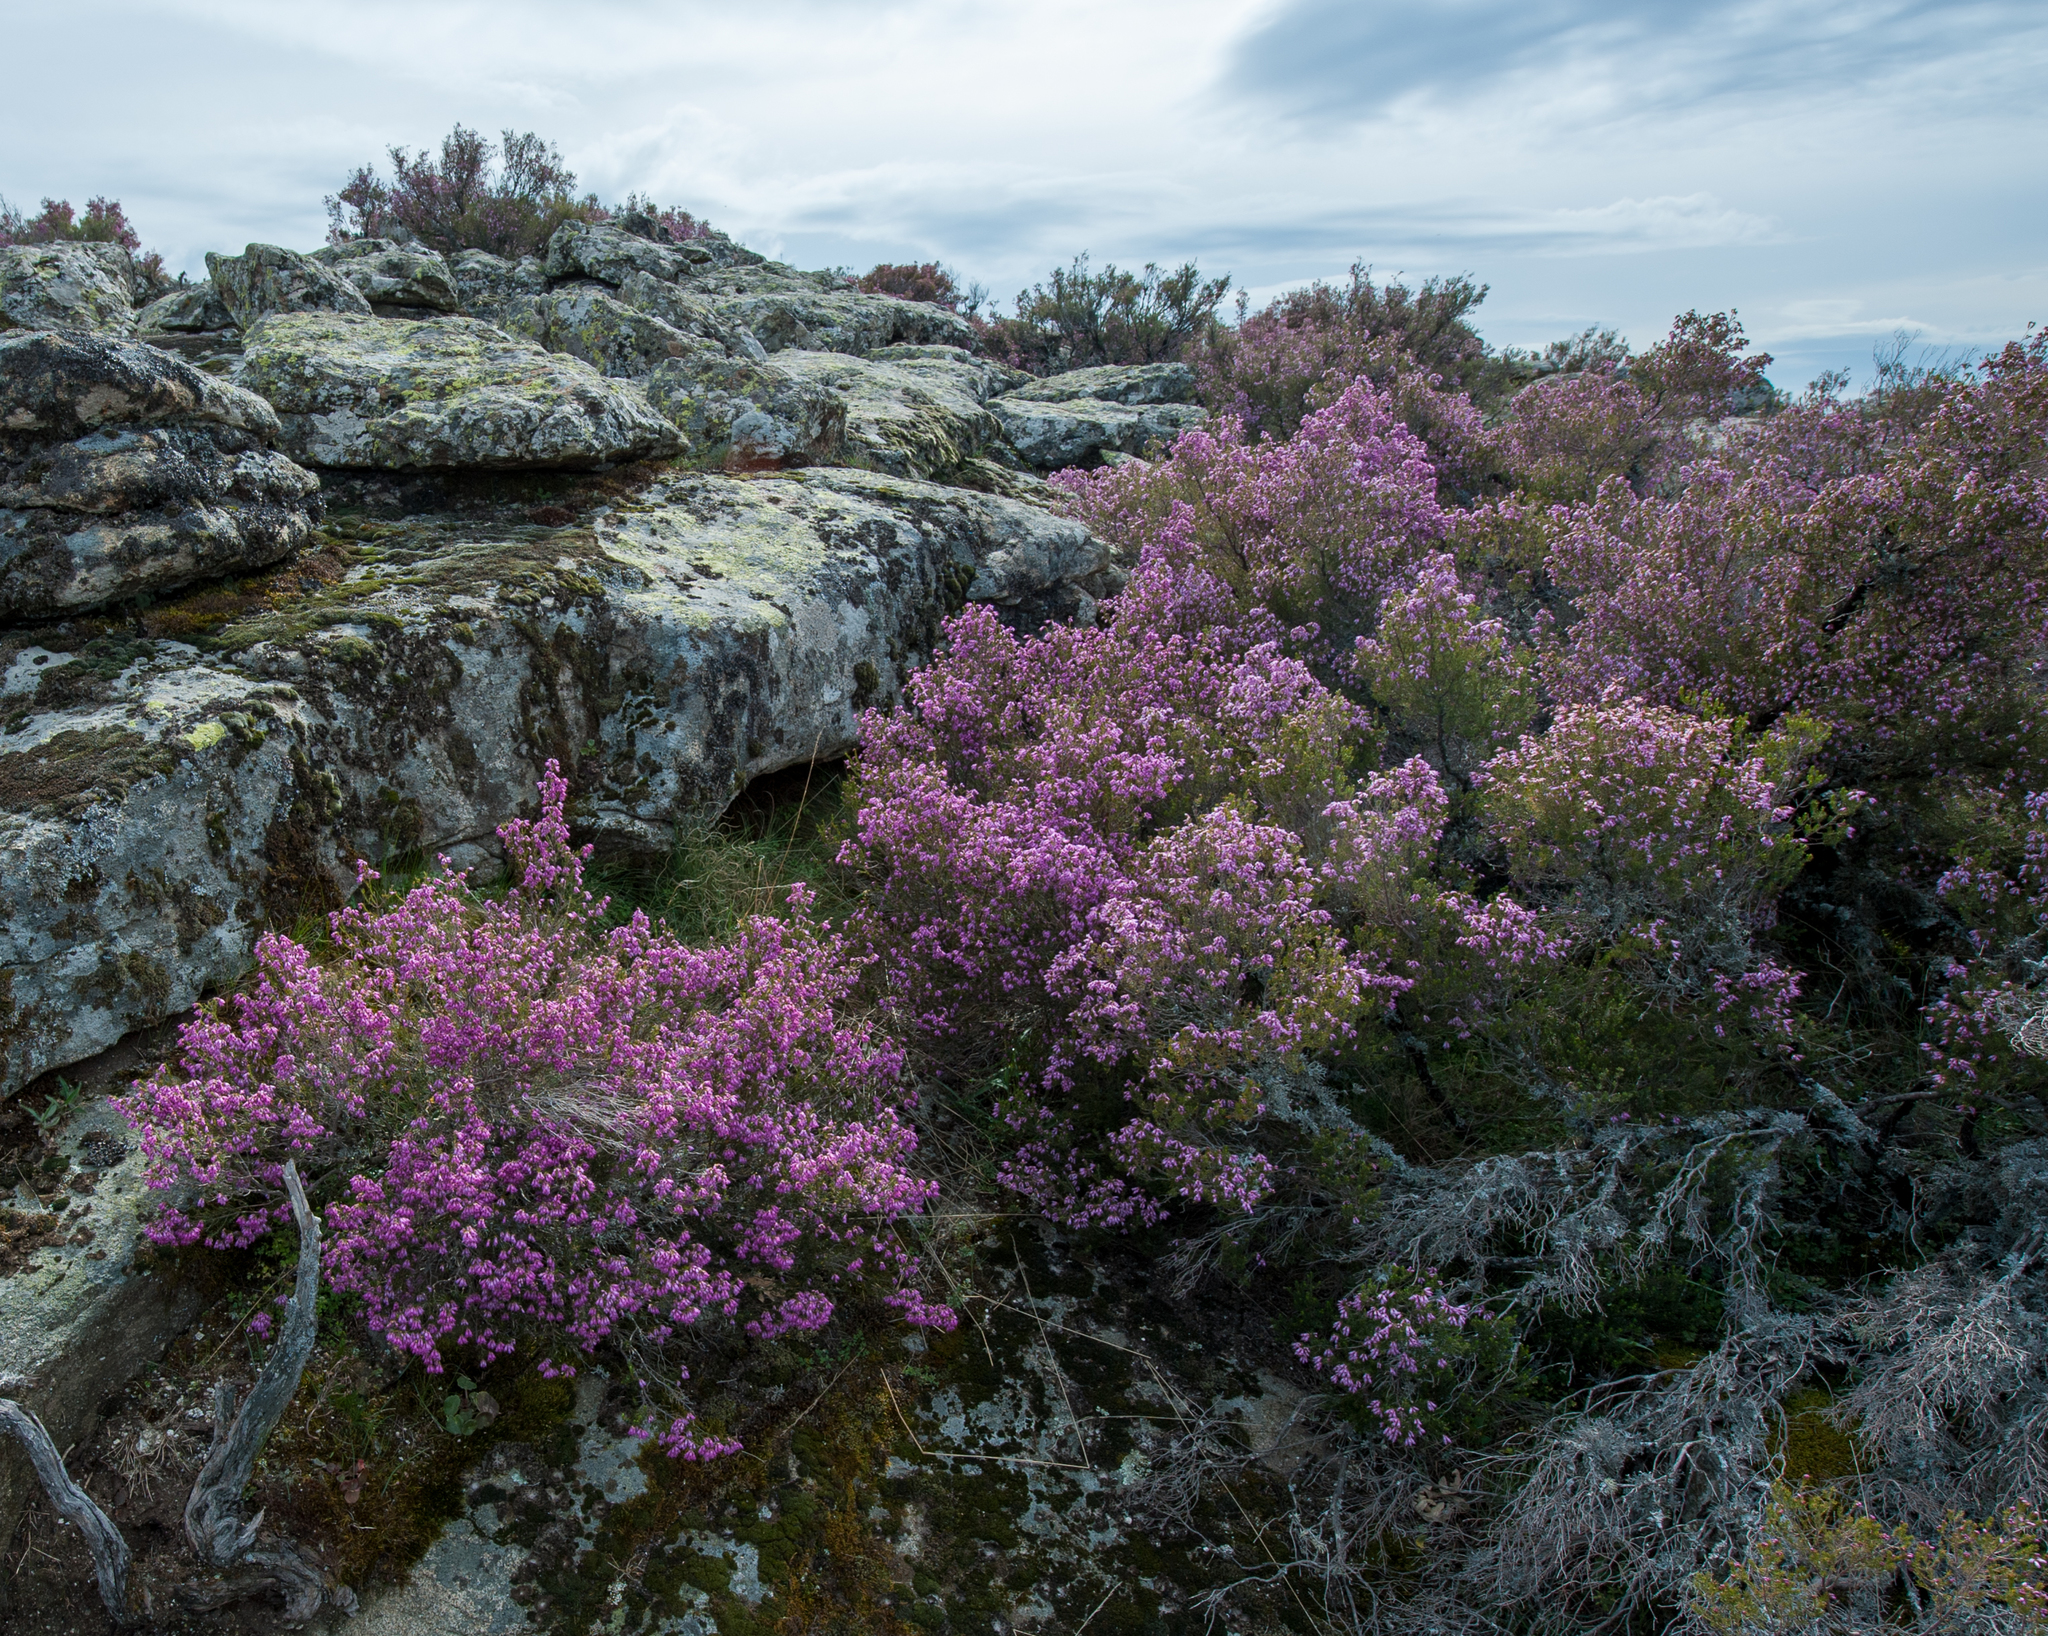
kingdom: Plantae
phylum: Tracheophyta
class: Magnoliopsida
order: Ericales
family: Ericaceae
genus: Erica
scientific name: Erica australis
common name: Spanish heath
